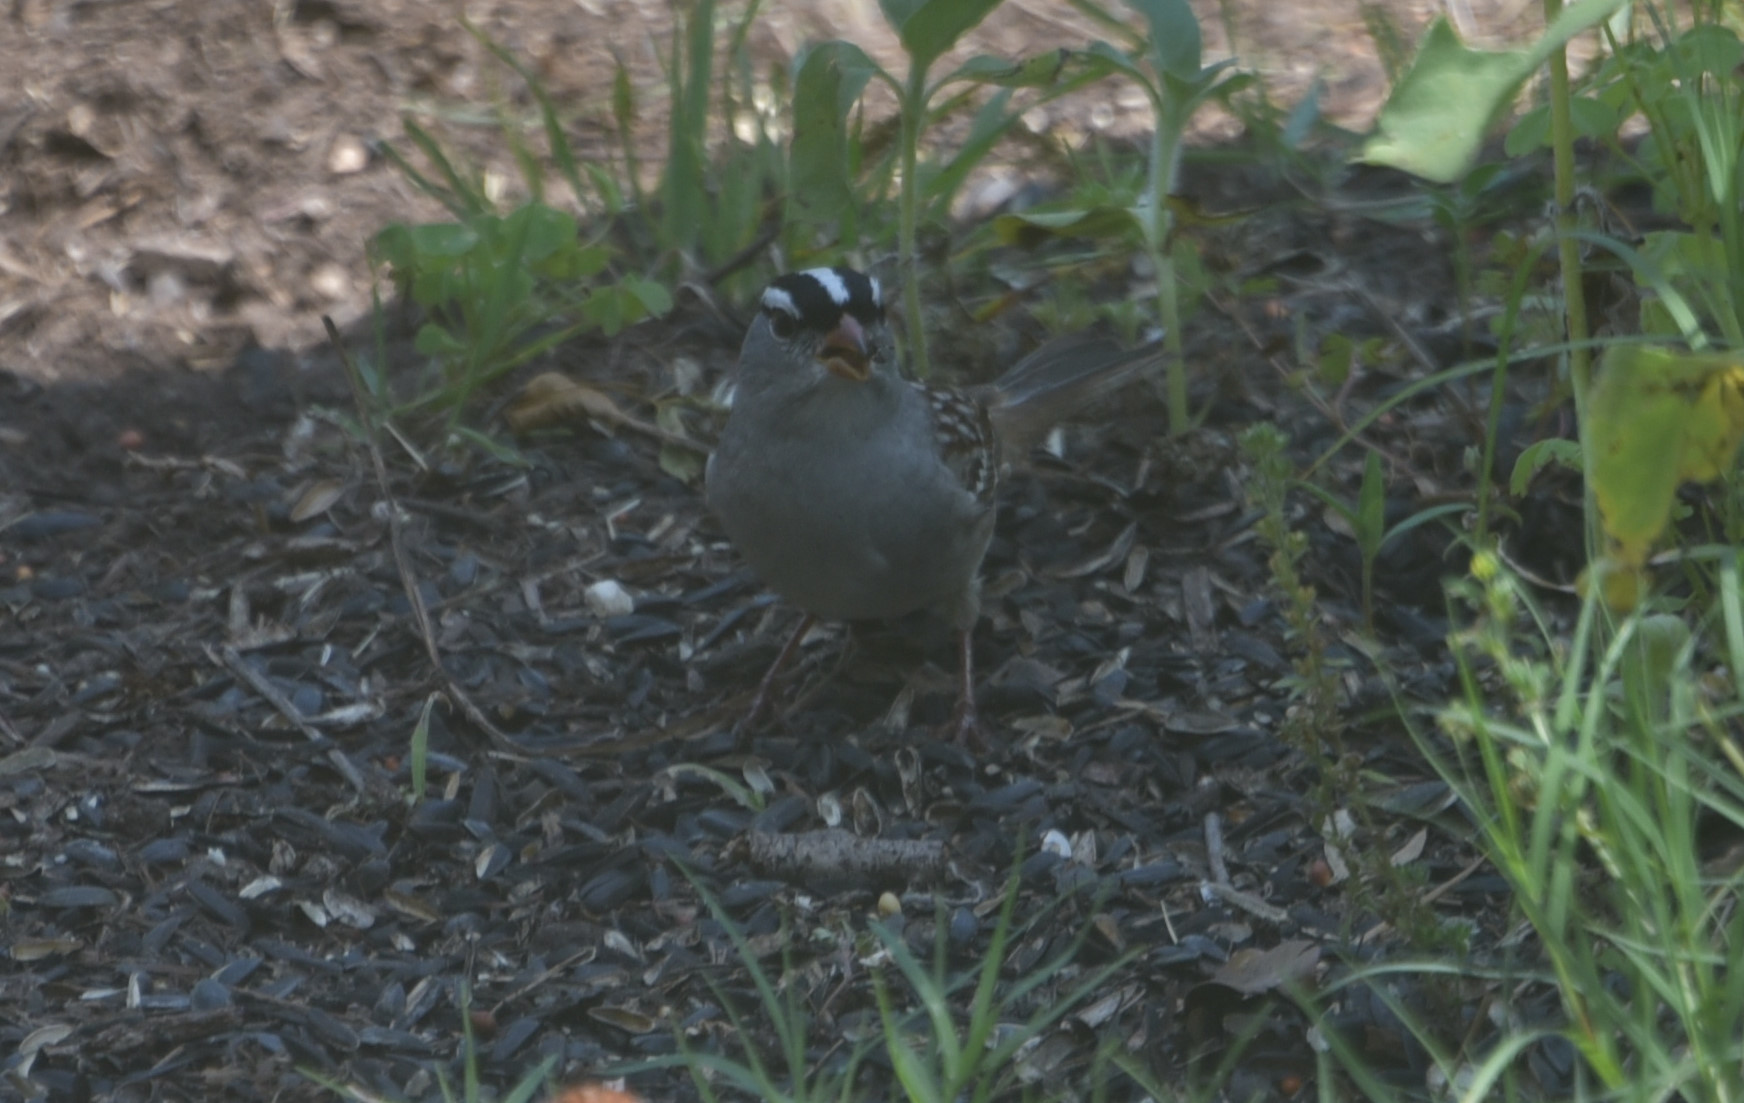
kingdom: Animalia
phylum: Chordata
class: Aves
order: Passeriformes
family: Passerellidae
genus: Zonotrichia
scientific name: Zonotrichia leucophrys
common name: White-crowned sparrow
